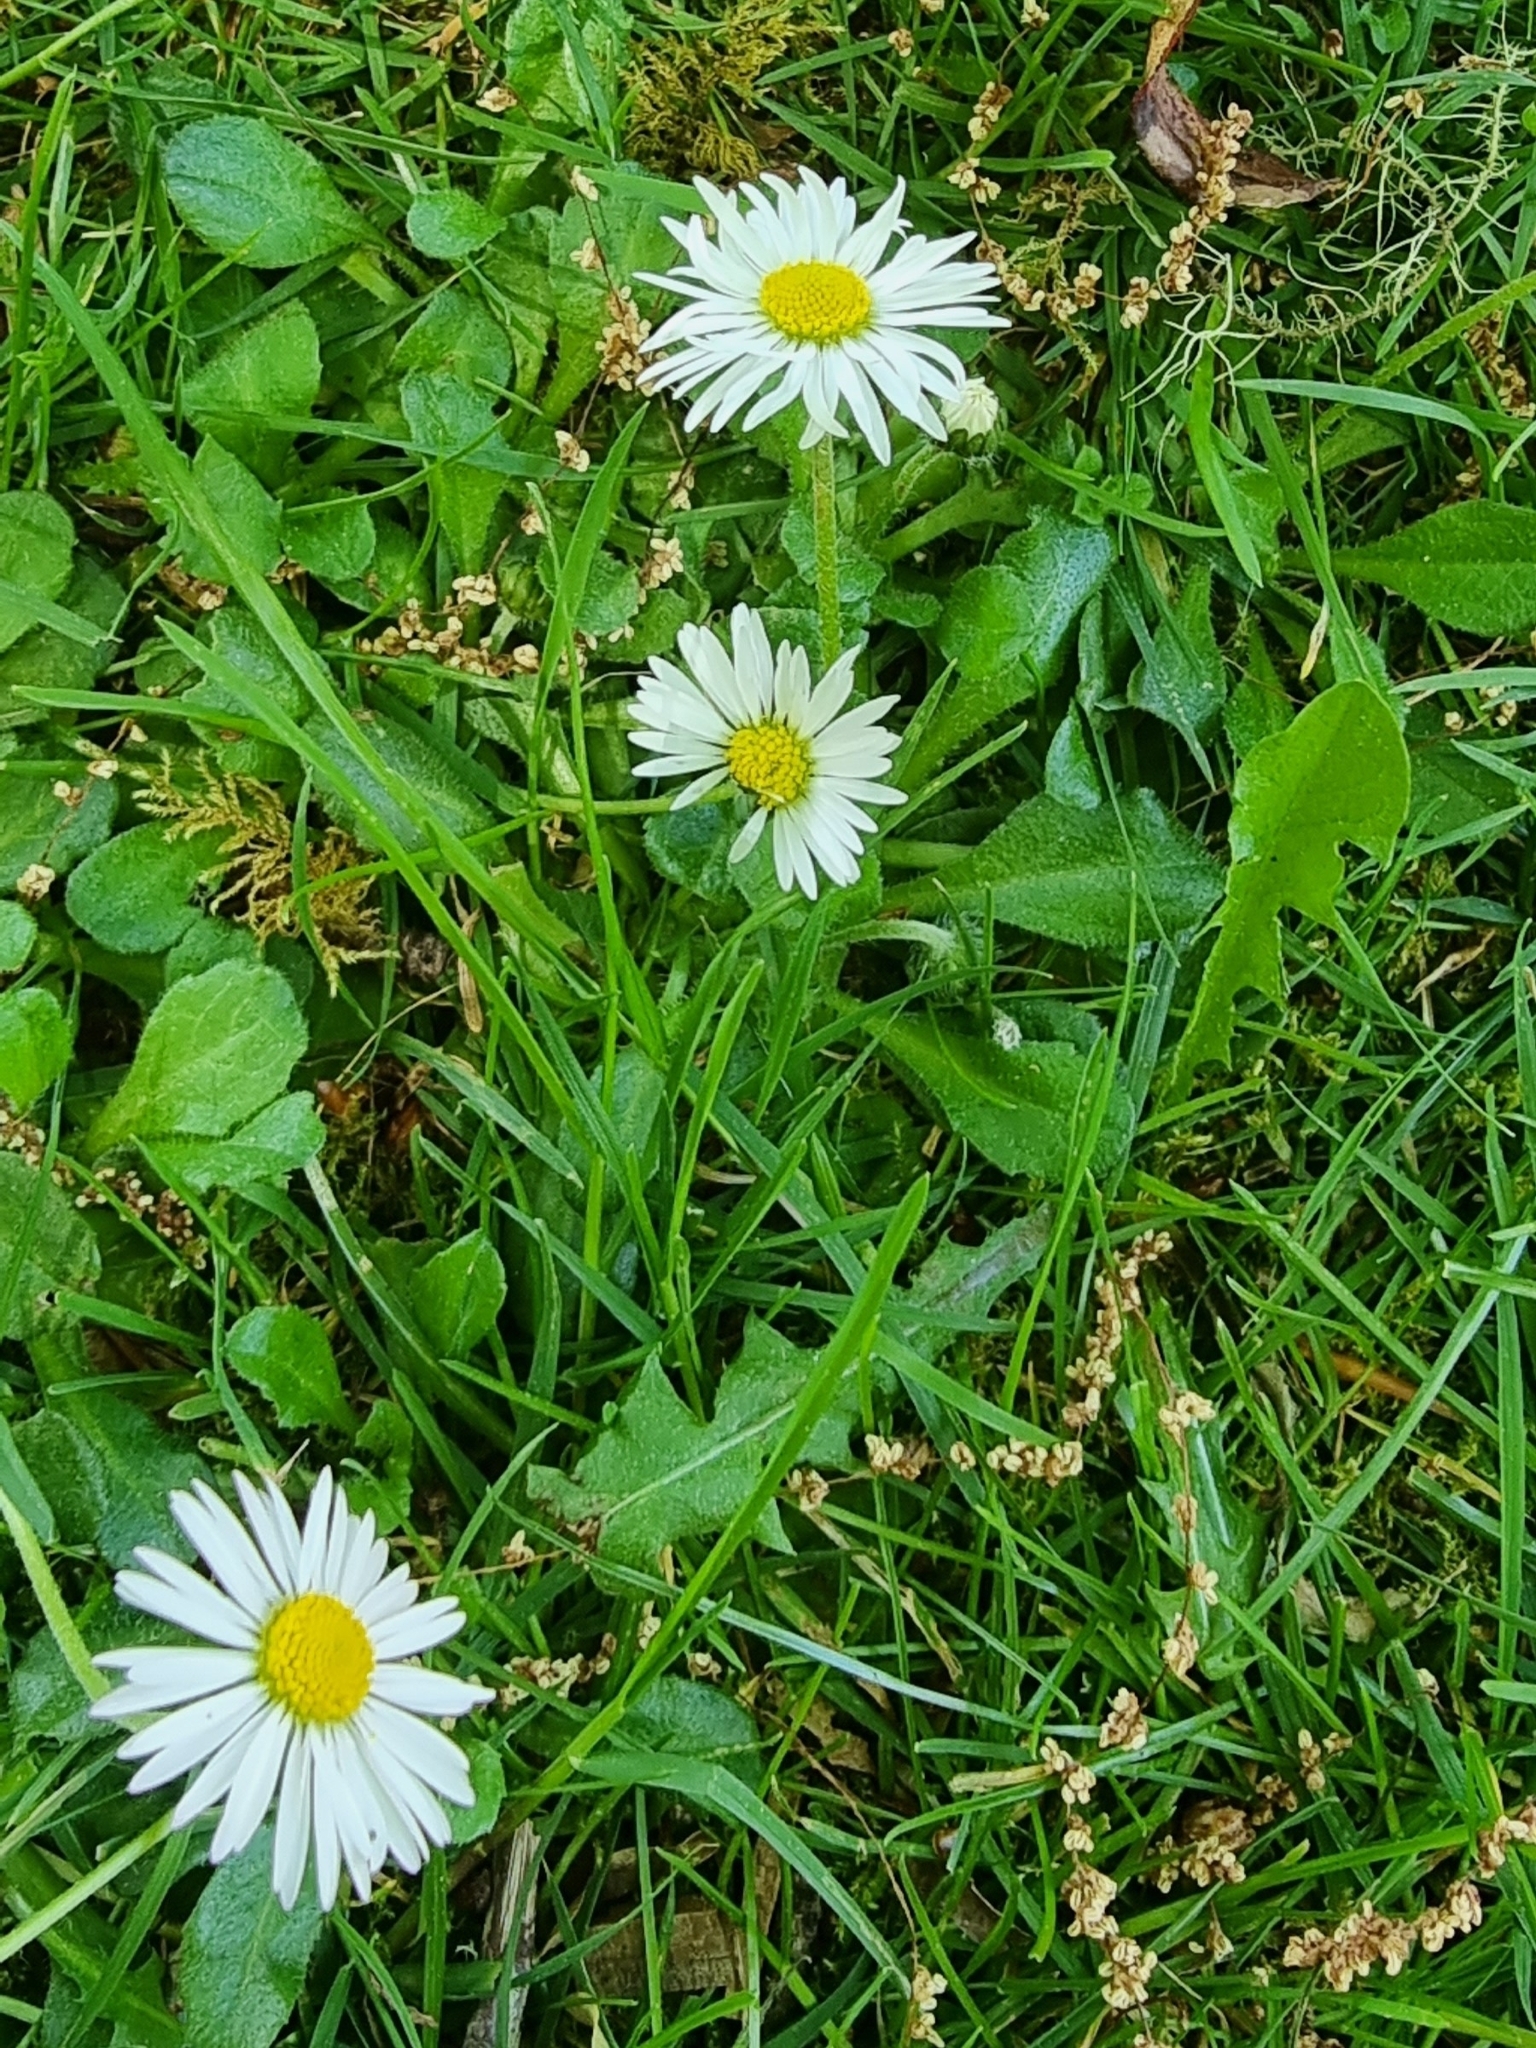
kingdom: Plantae
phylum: Tracheophyta
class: Magnoliopsida
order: Asterales
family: Asteraceae
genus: Bellis
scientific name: Bellis perennis
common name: Lawndaisy
